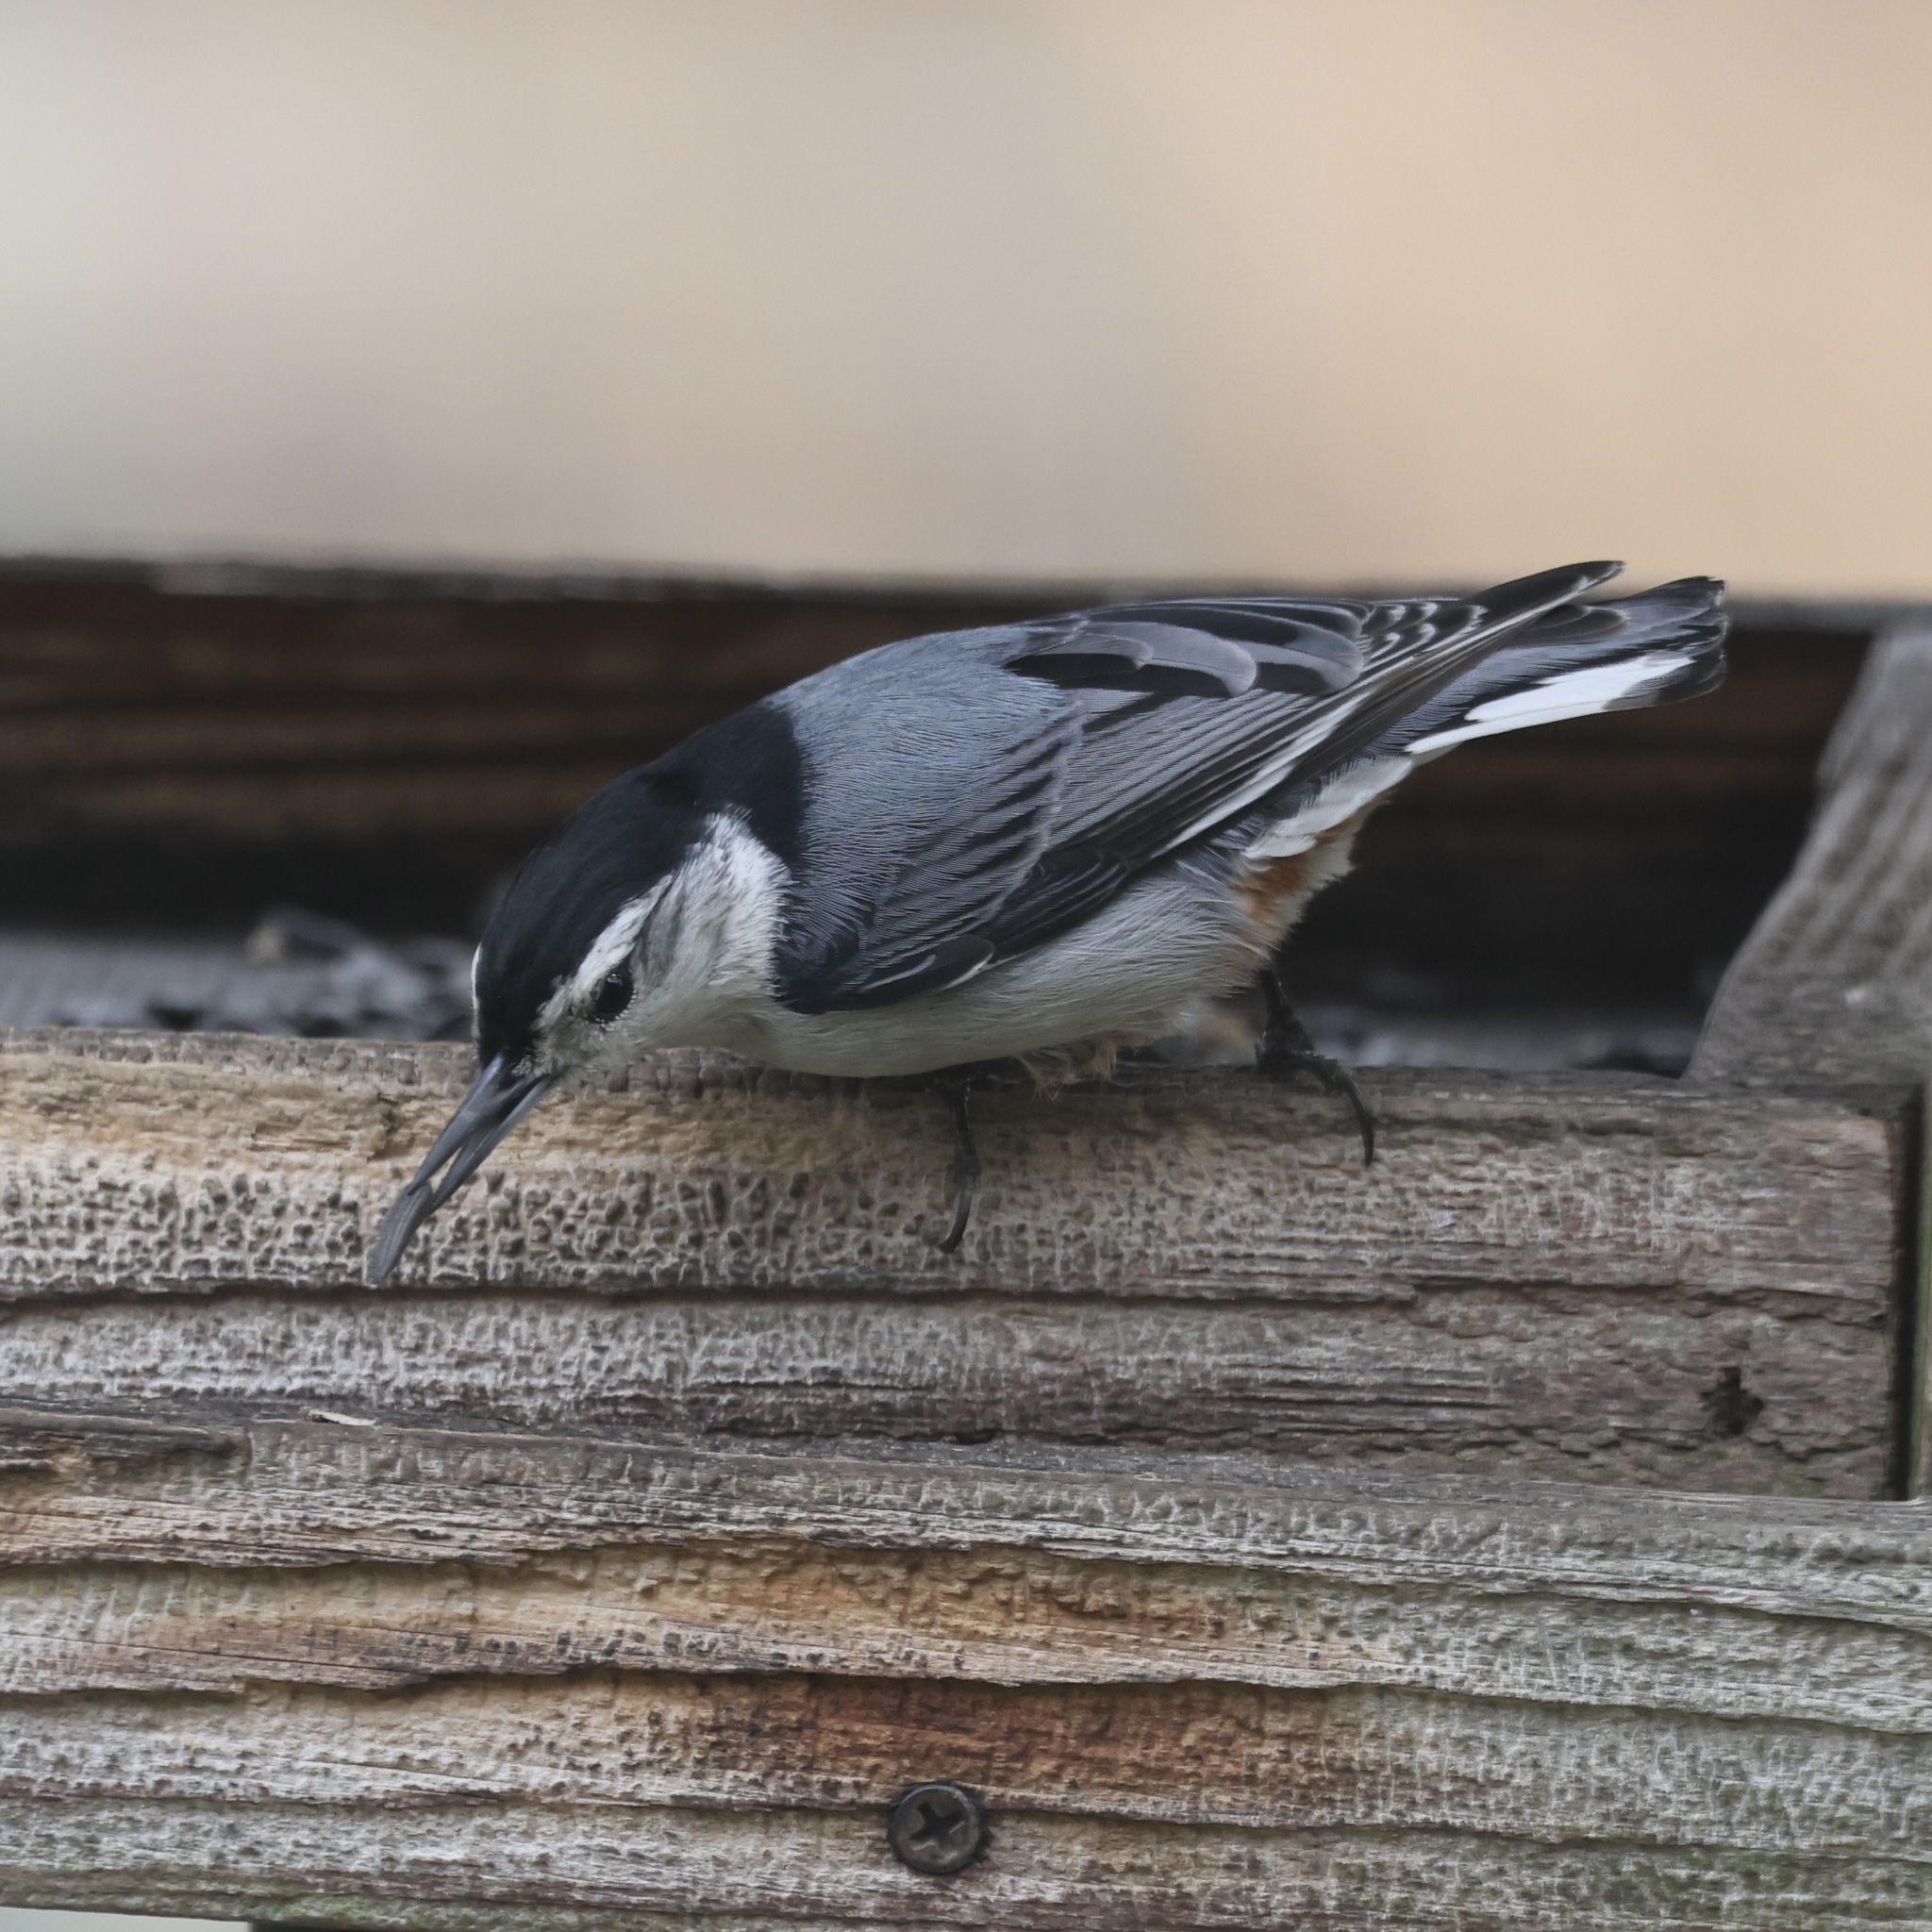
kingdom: Animalia
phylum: Chordata
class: Aves
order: Passeriformes
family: Sittidae
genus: Sitta
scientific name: Sitta carolinensis
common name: White-breasted nuthatch
